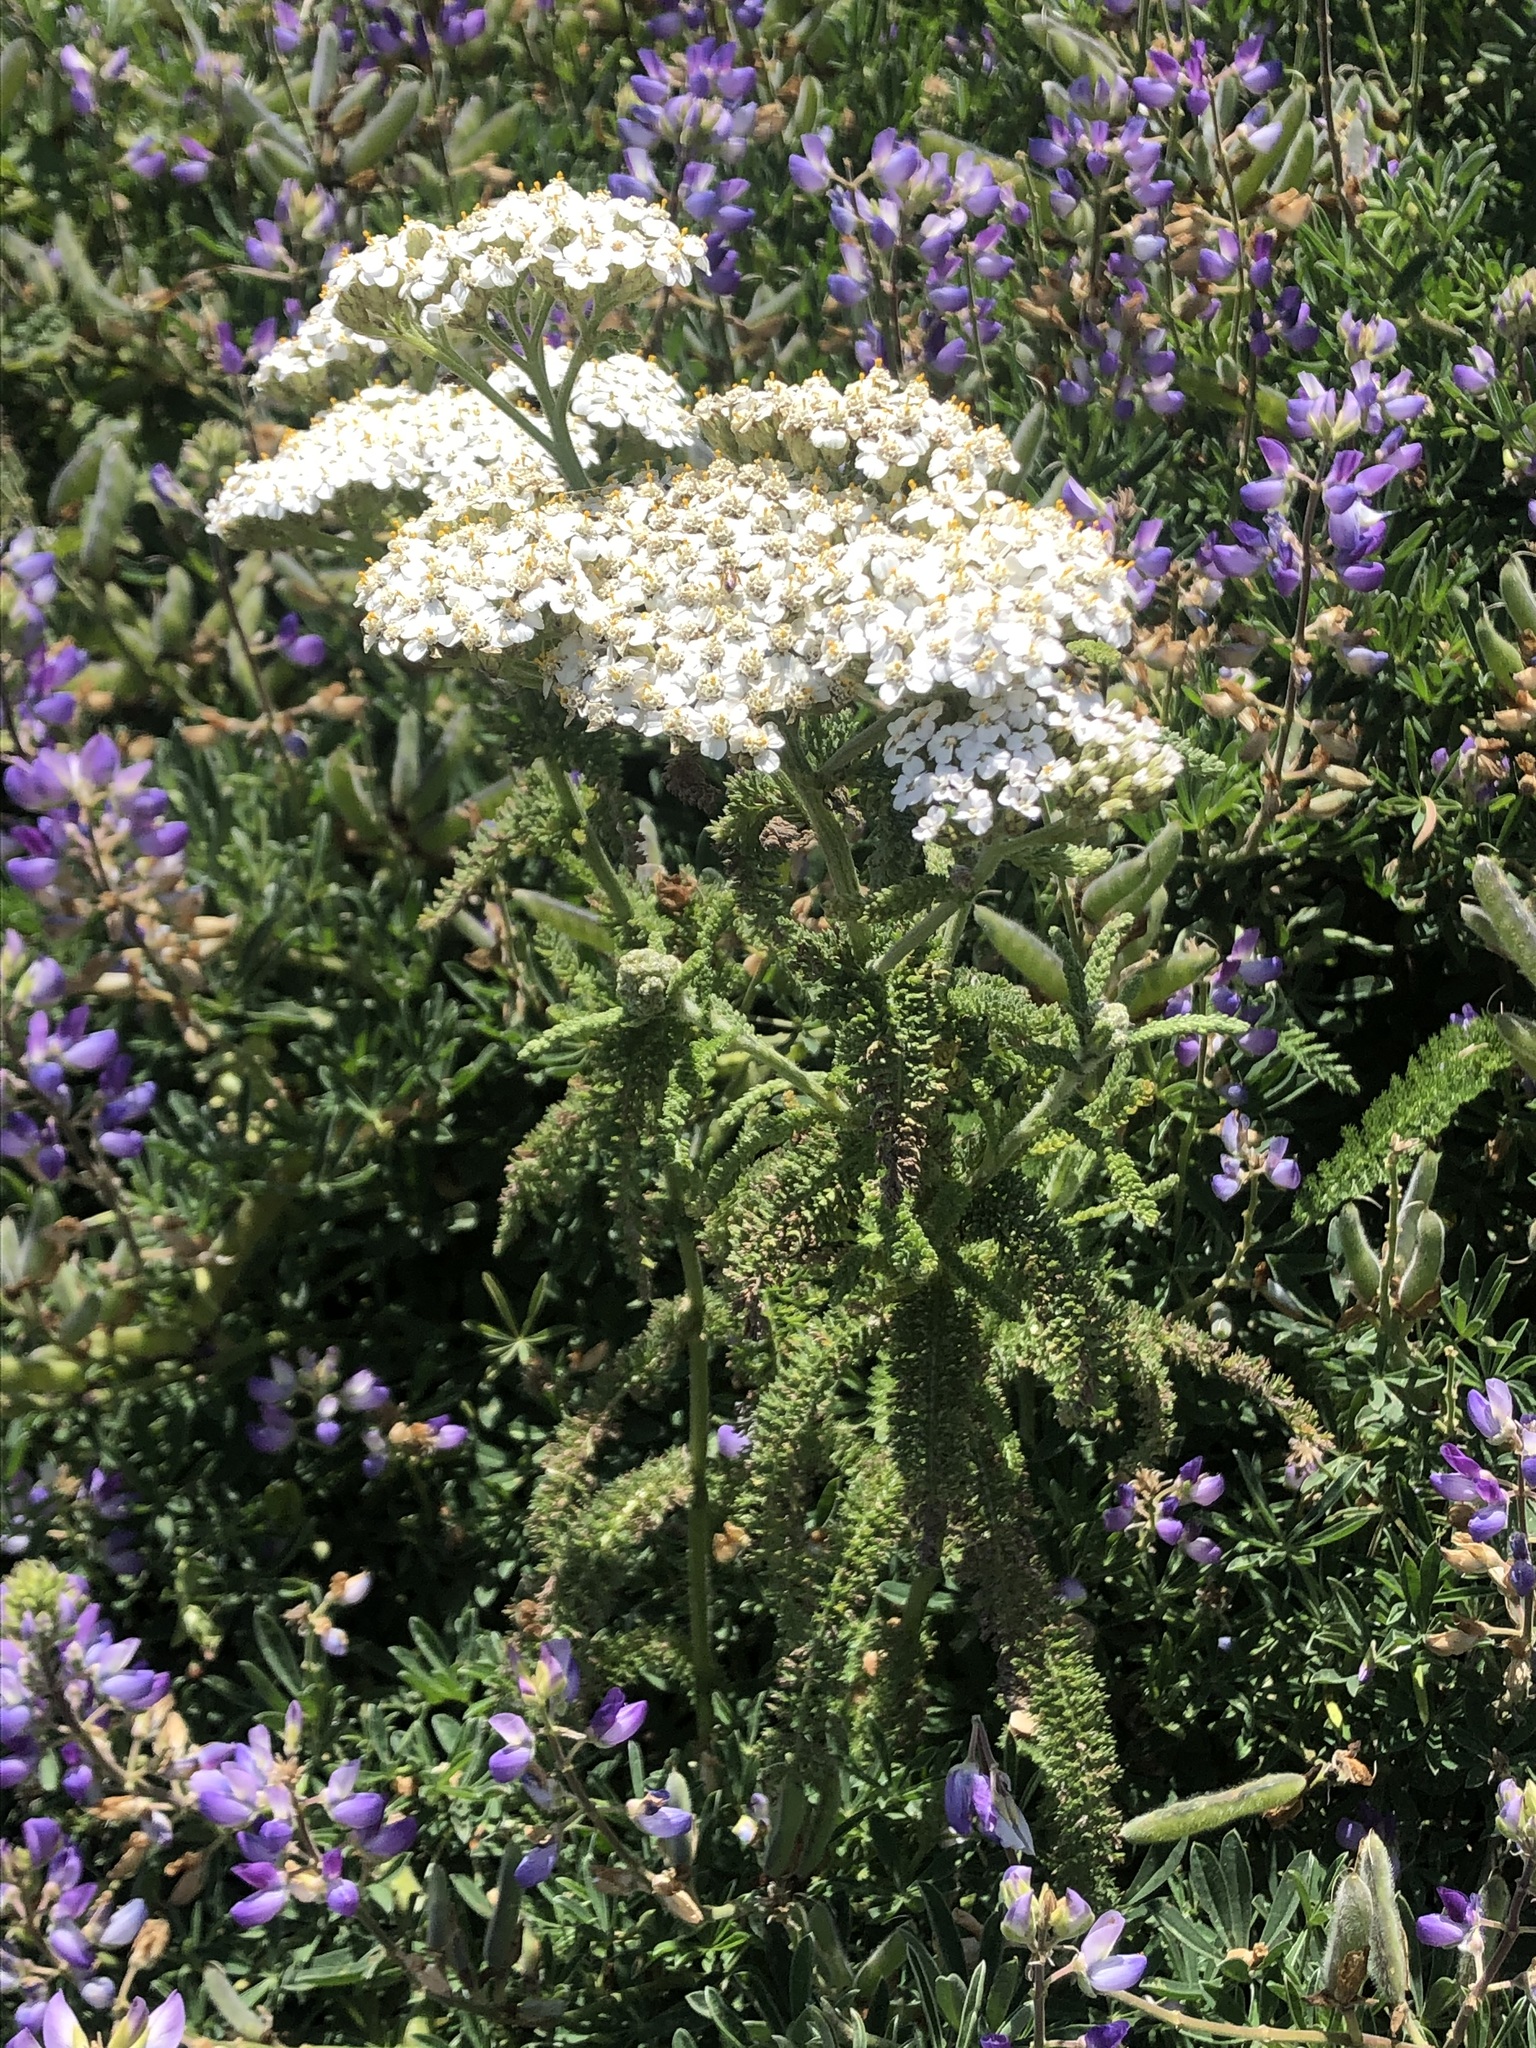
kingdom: Plantae
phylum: Tracheophyta
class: Magnoliopsida
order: Asterales
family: Asteraceae
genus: Achillea
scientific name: Achillea millefolium
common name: Yarrow
